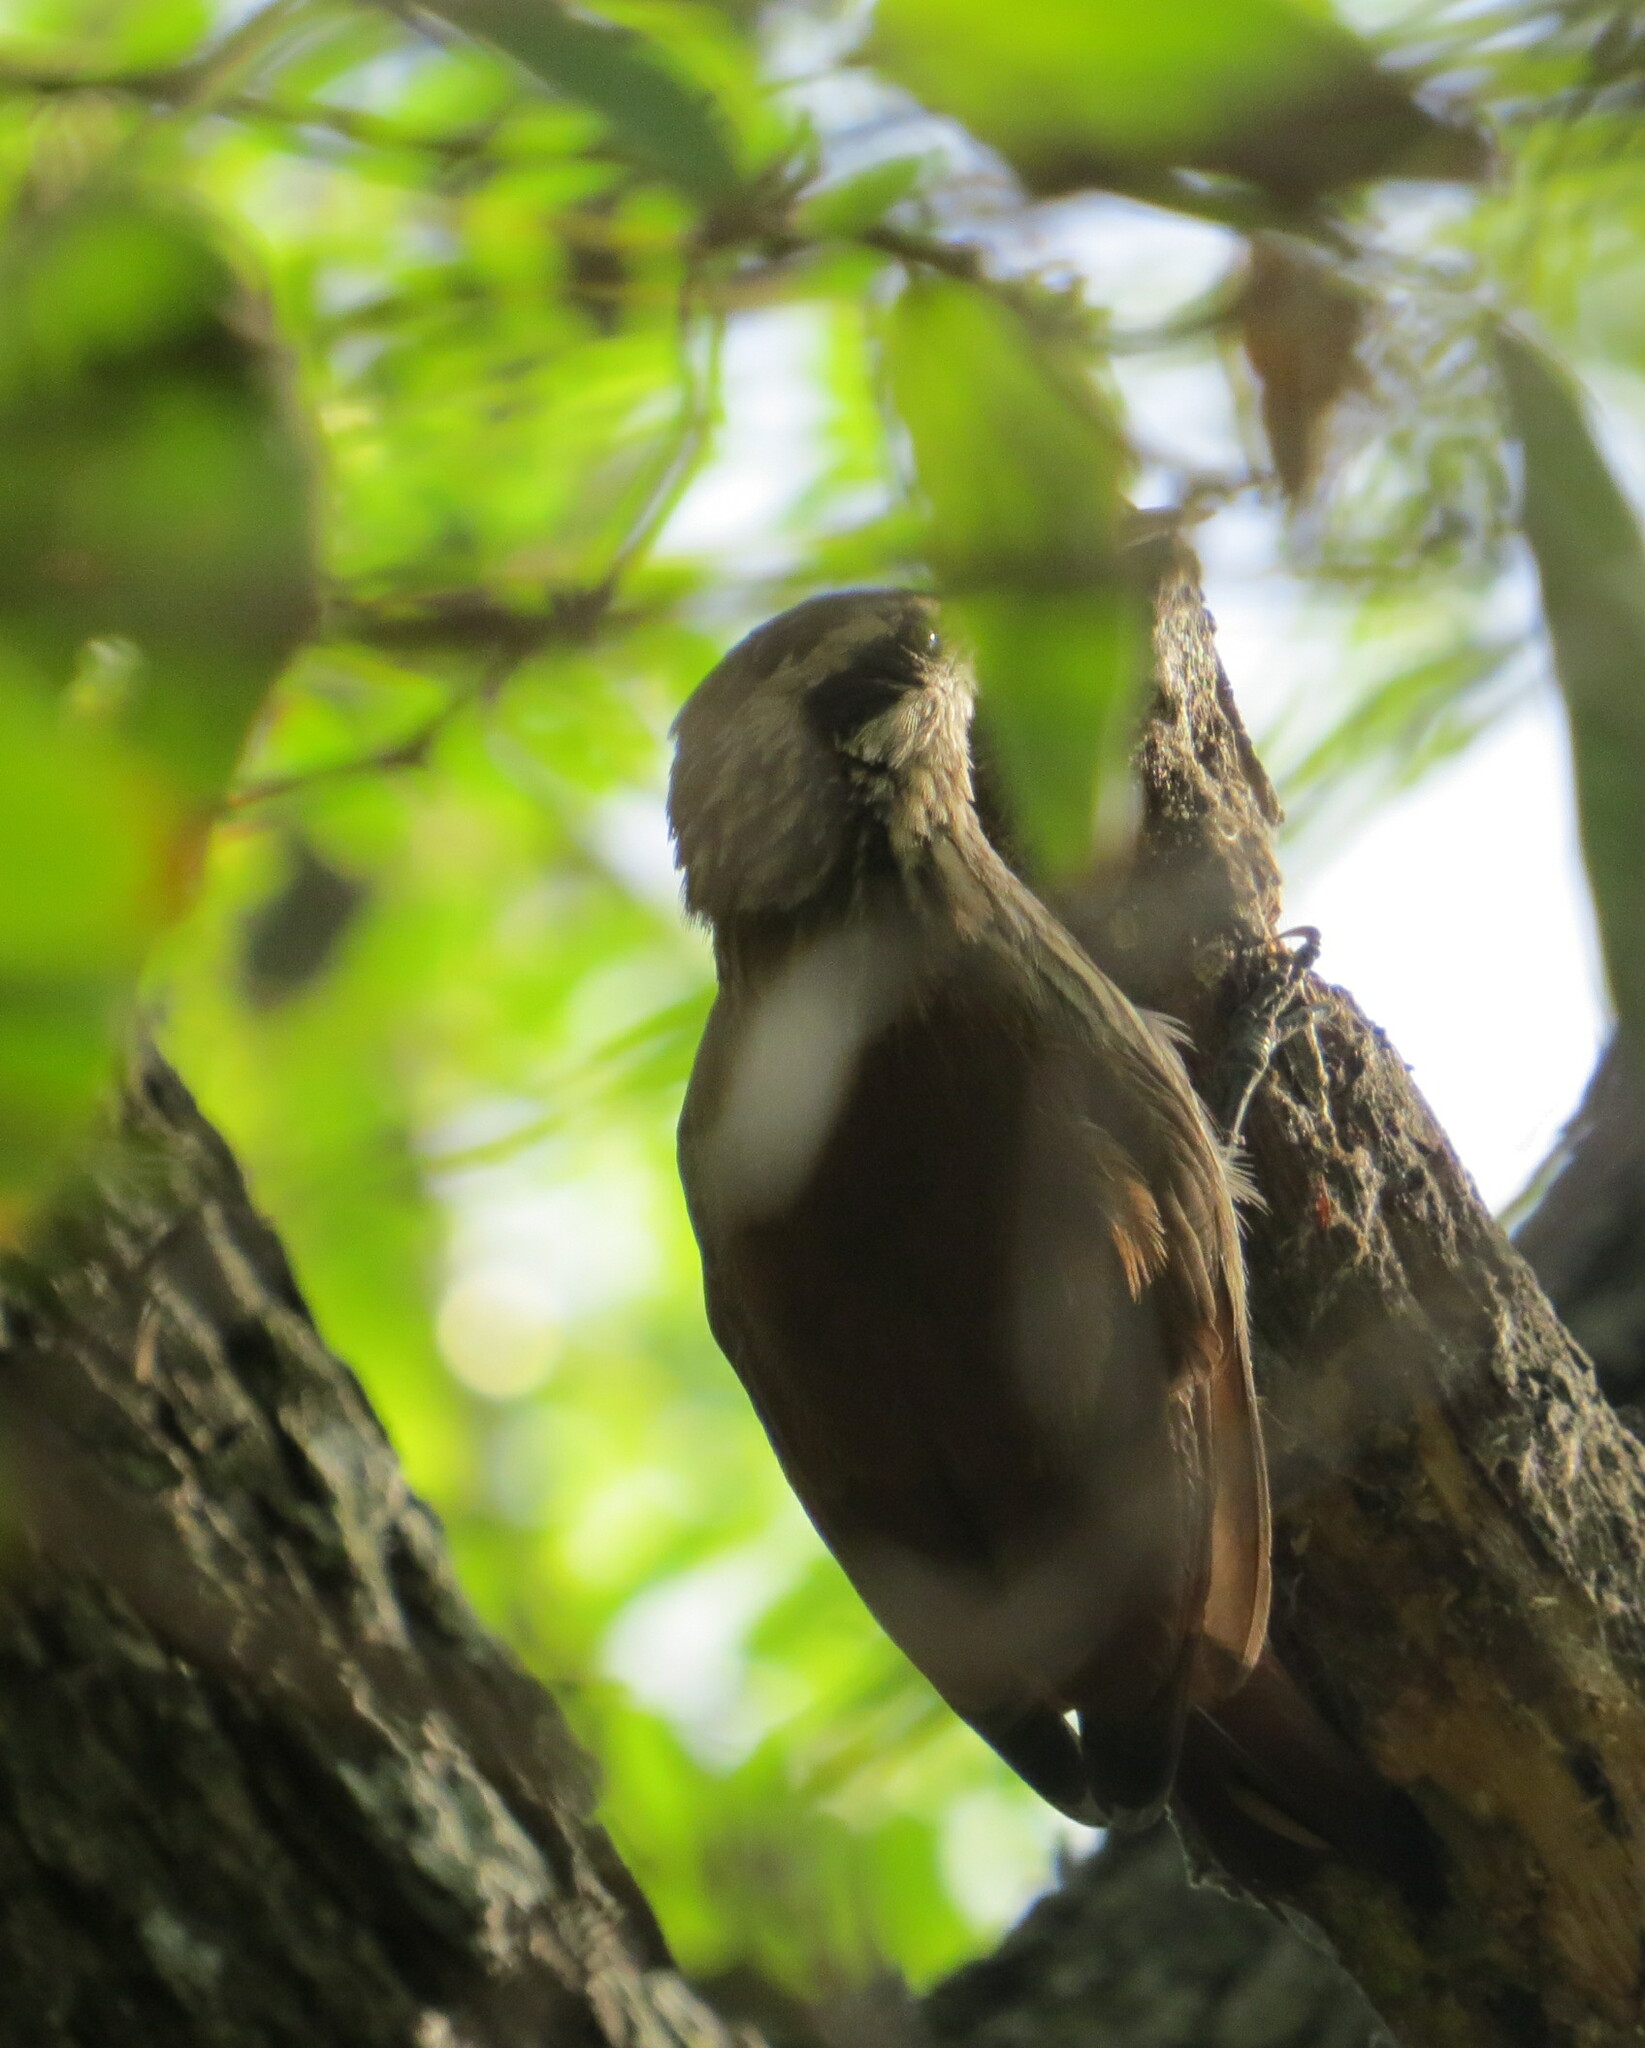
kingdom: Animalia
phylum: Chordata
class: Aves
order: Passeriformes
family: Furnariidae
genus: Lepidocolaptes
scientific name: Lepidocolaptes angustirostris
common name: Narrow-billed woodcreeper
